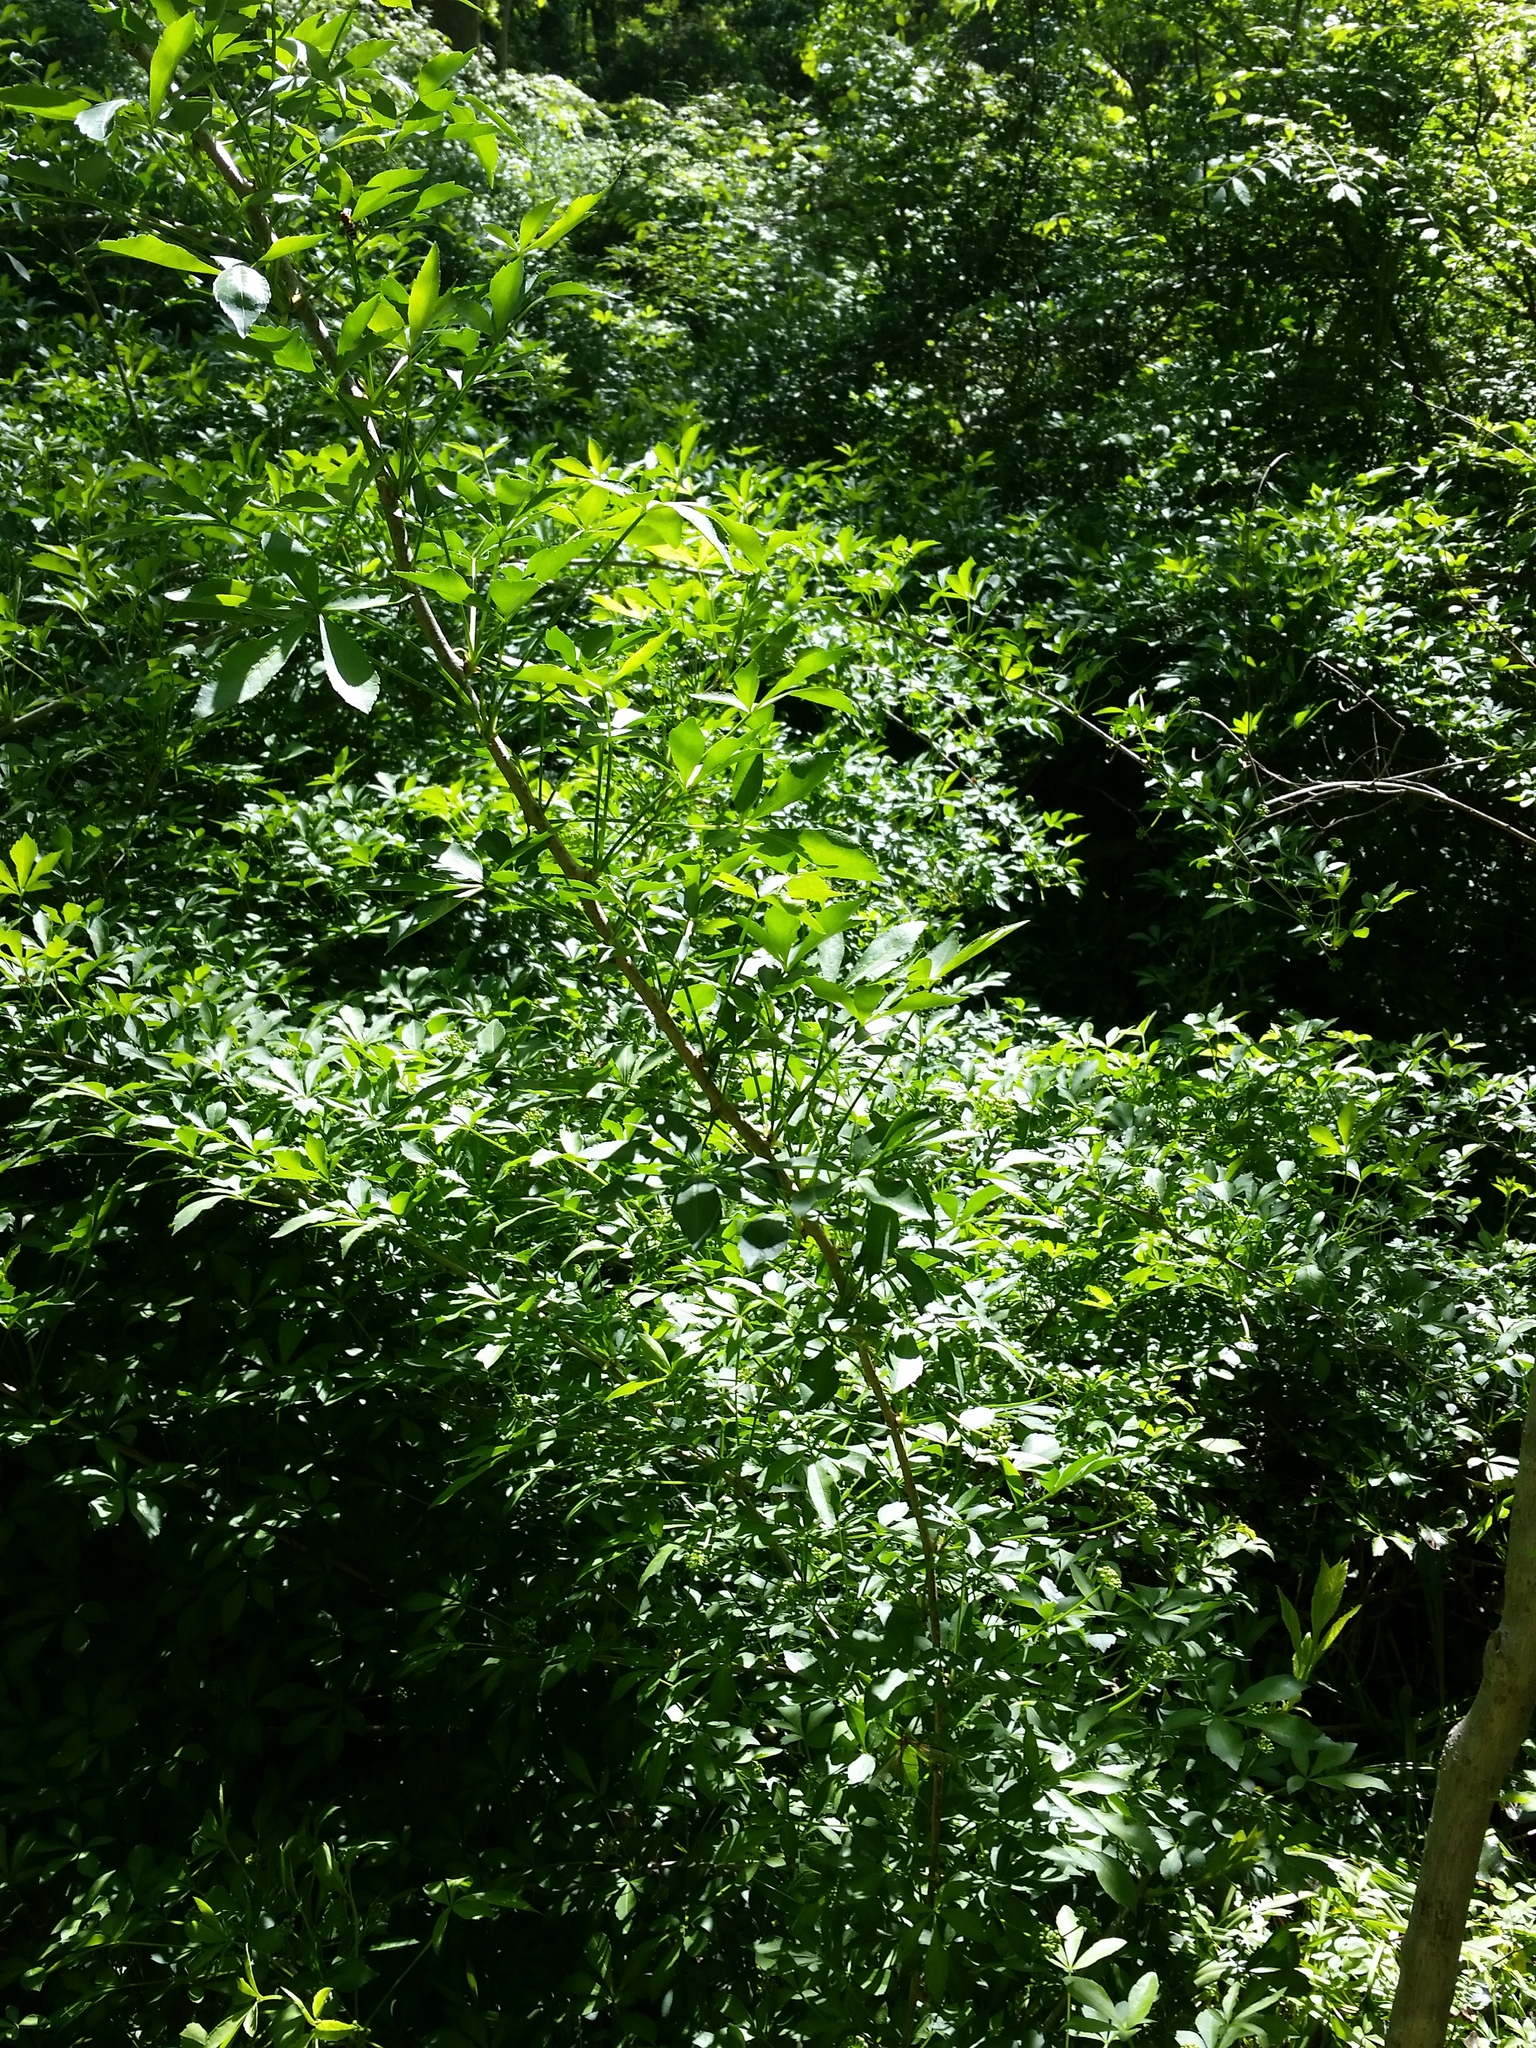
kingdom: Plantae
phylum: Tracheophyta
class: Magnoliopsida
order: Apiales
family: Araliaceae
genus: Eleutherococcus
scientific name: Eleutherococcus sieboldianus
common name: Ginseng
